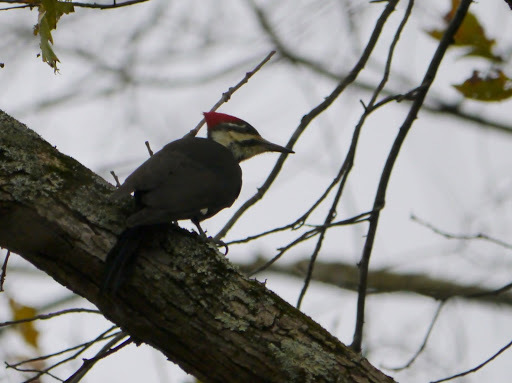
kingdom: Animalia
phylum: Chordata
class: Aves
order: Piciformes
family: Picidae
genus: Dryocopus
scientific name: Dryocopus pileatus
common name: Pileated woodpecker
